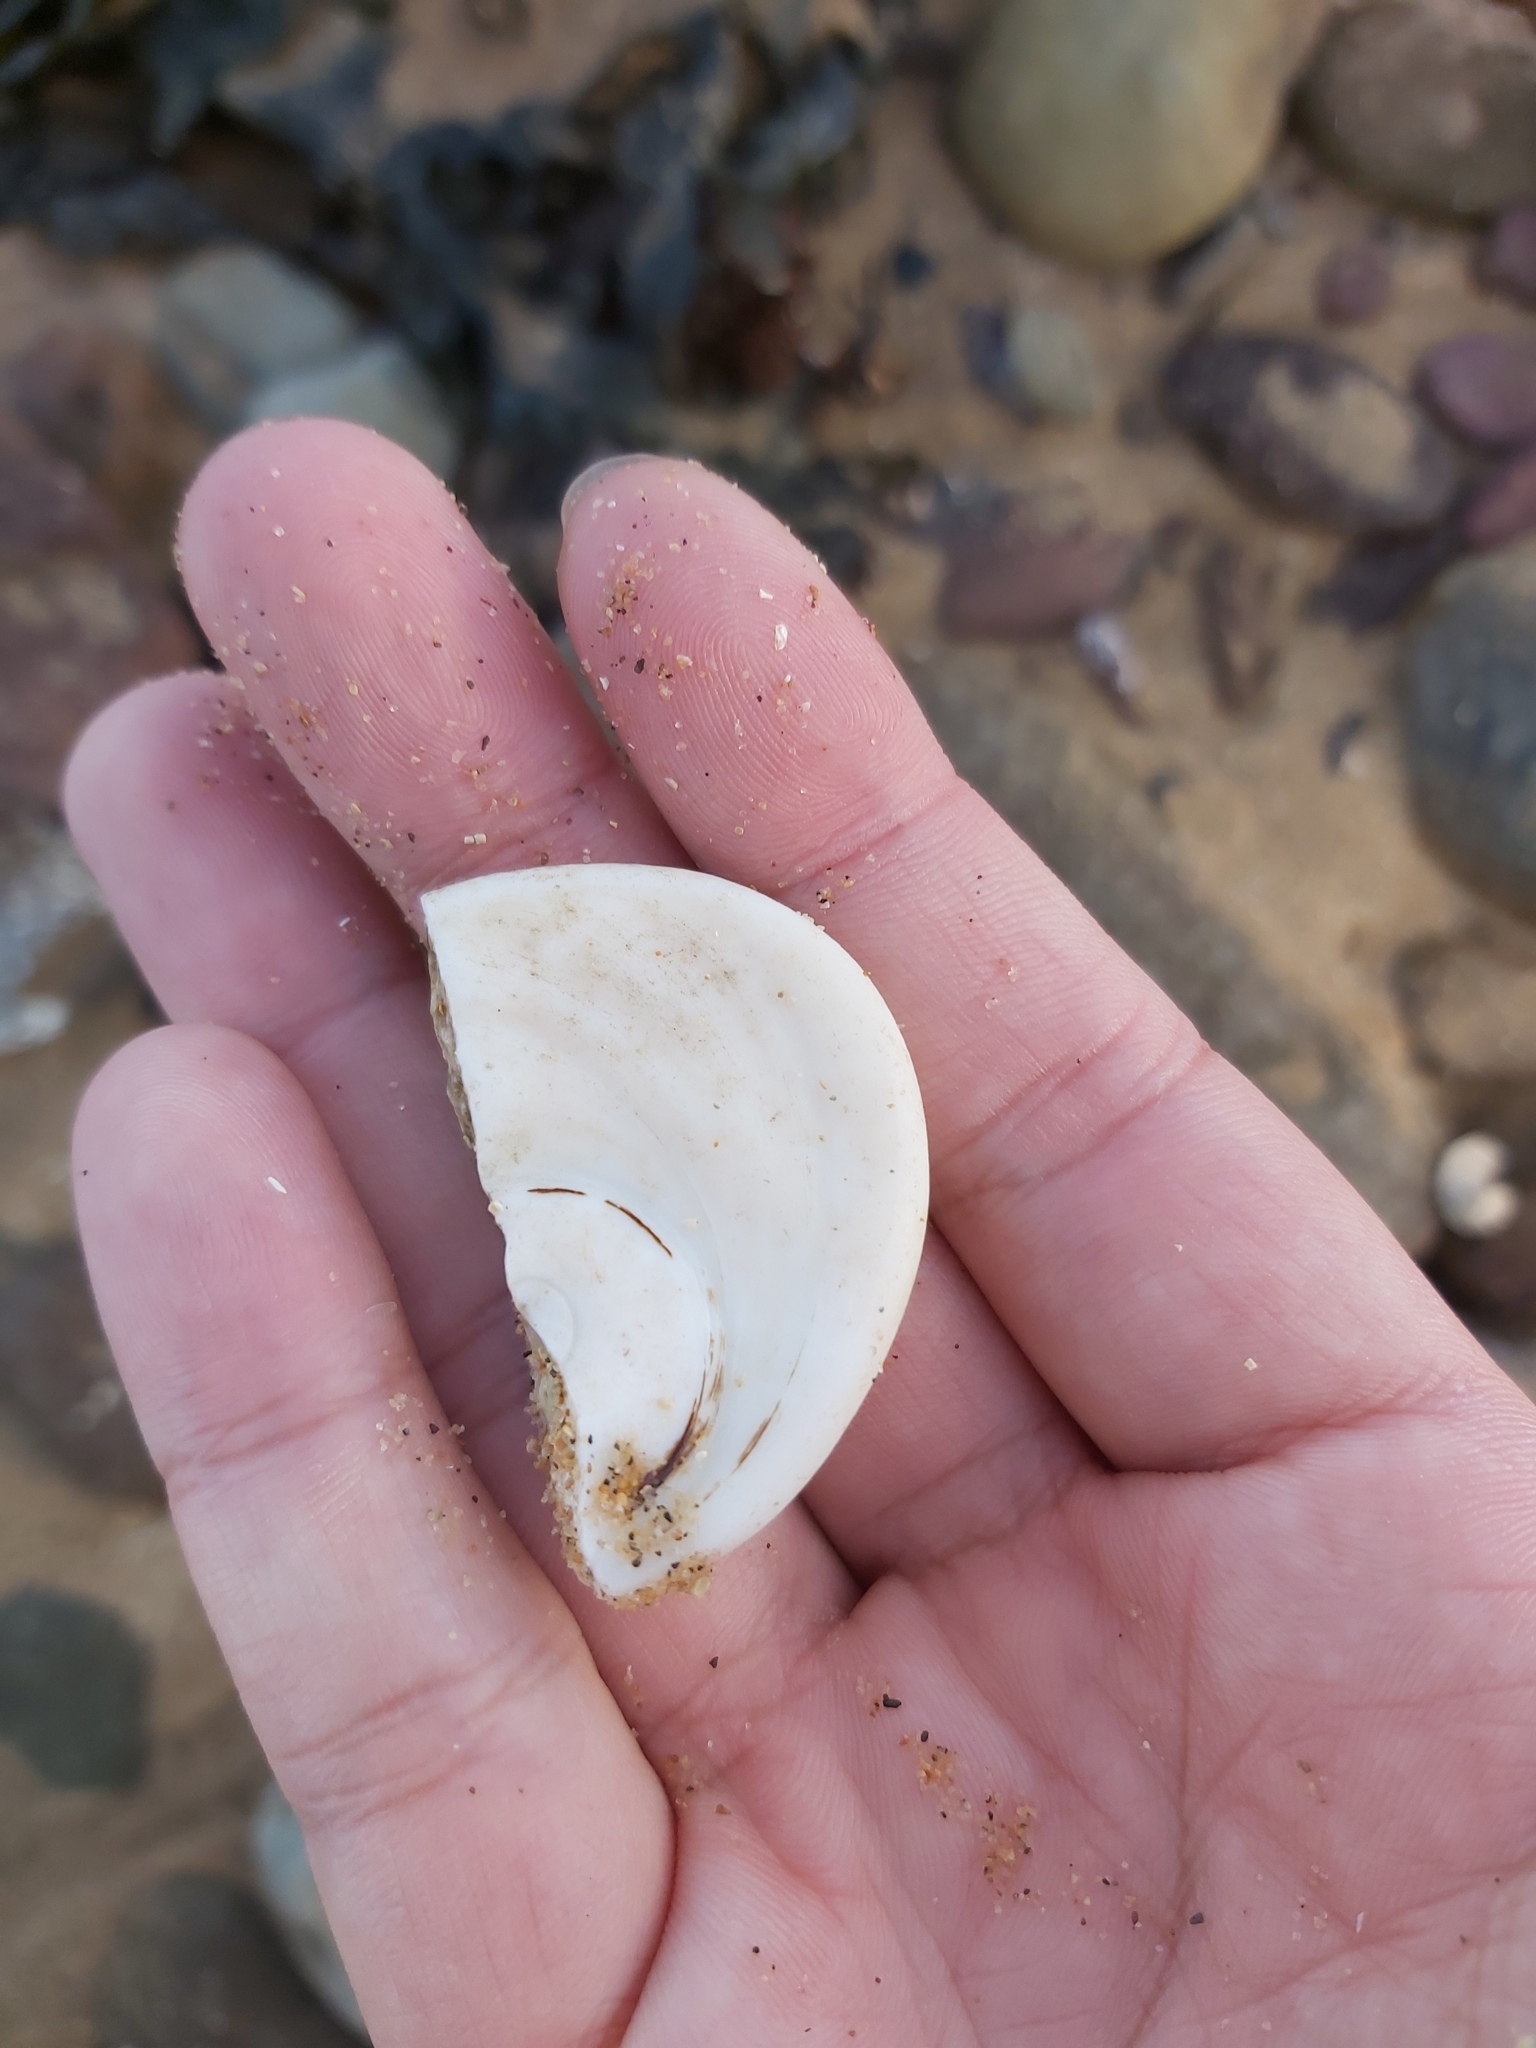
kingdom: Animalia
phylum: Mollusca
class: Gastropoda
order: Trochida
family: Turbinidae
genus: Turbo
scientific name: Turbo militaris
